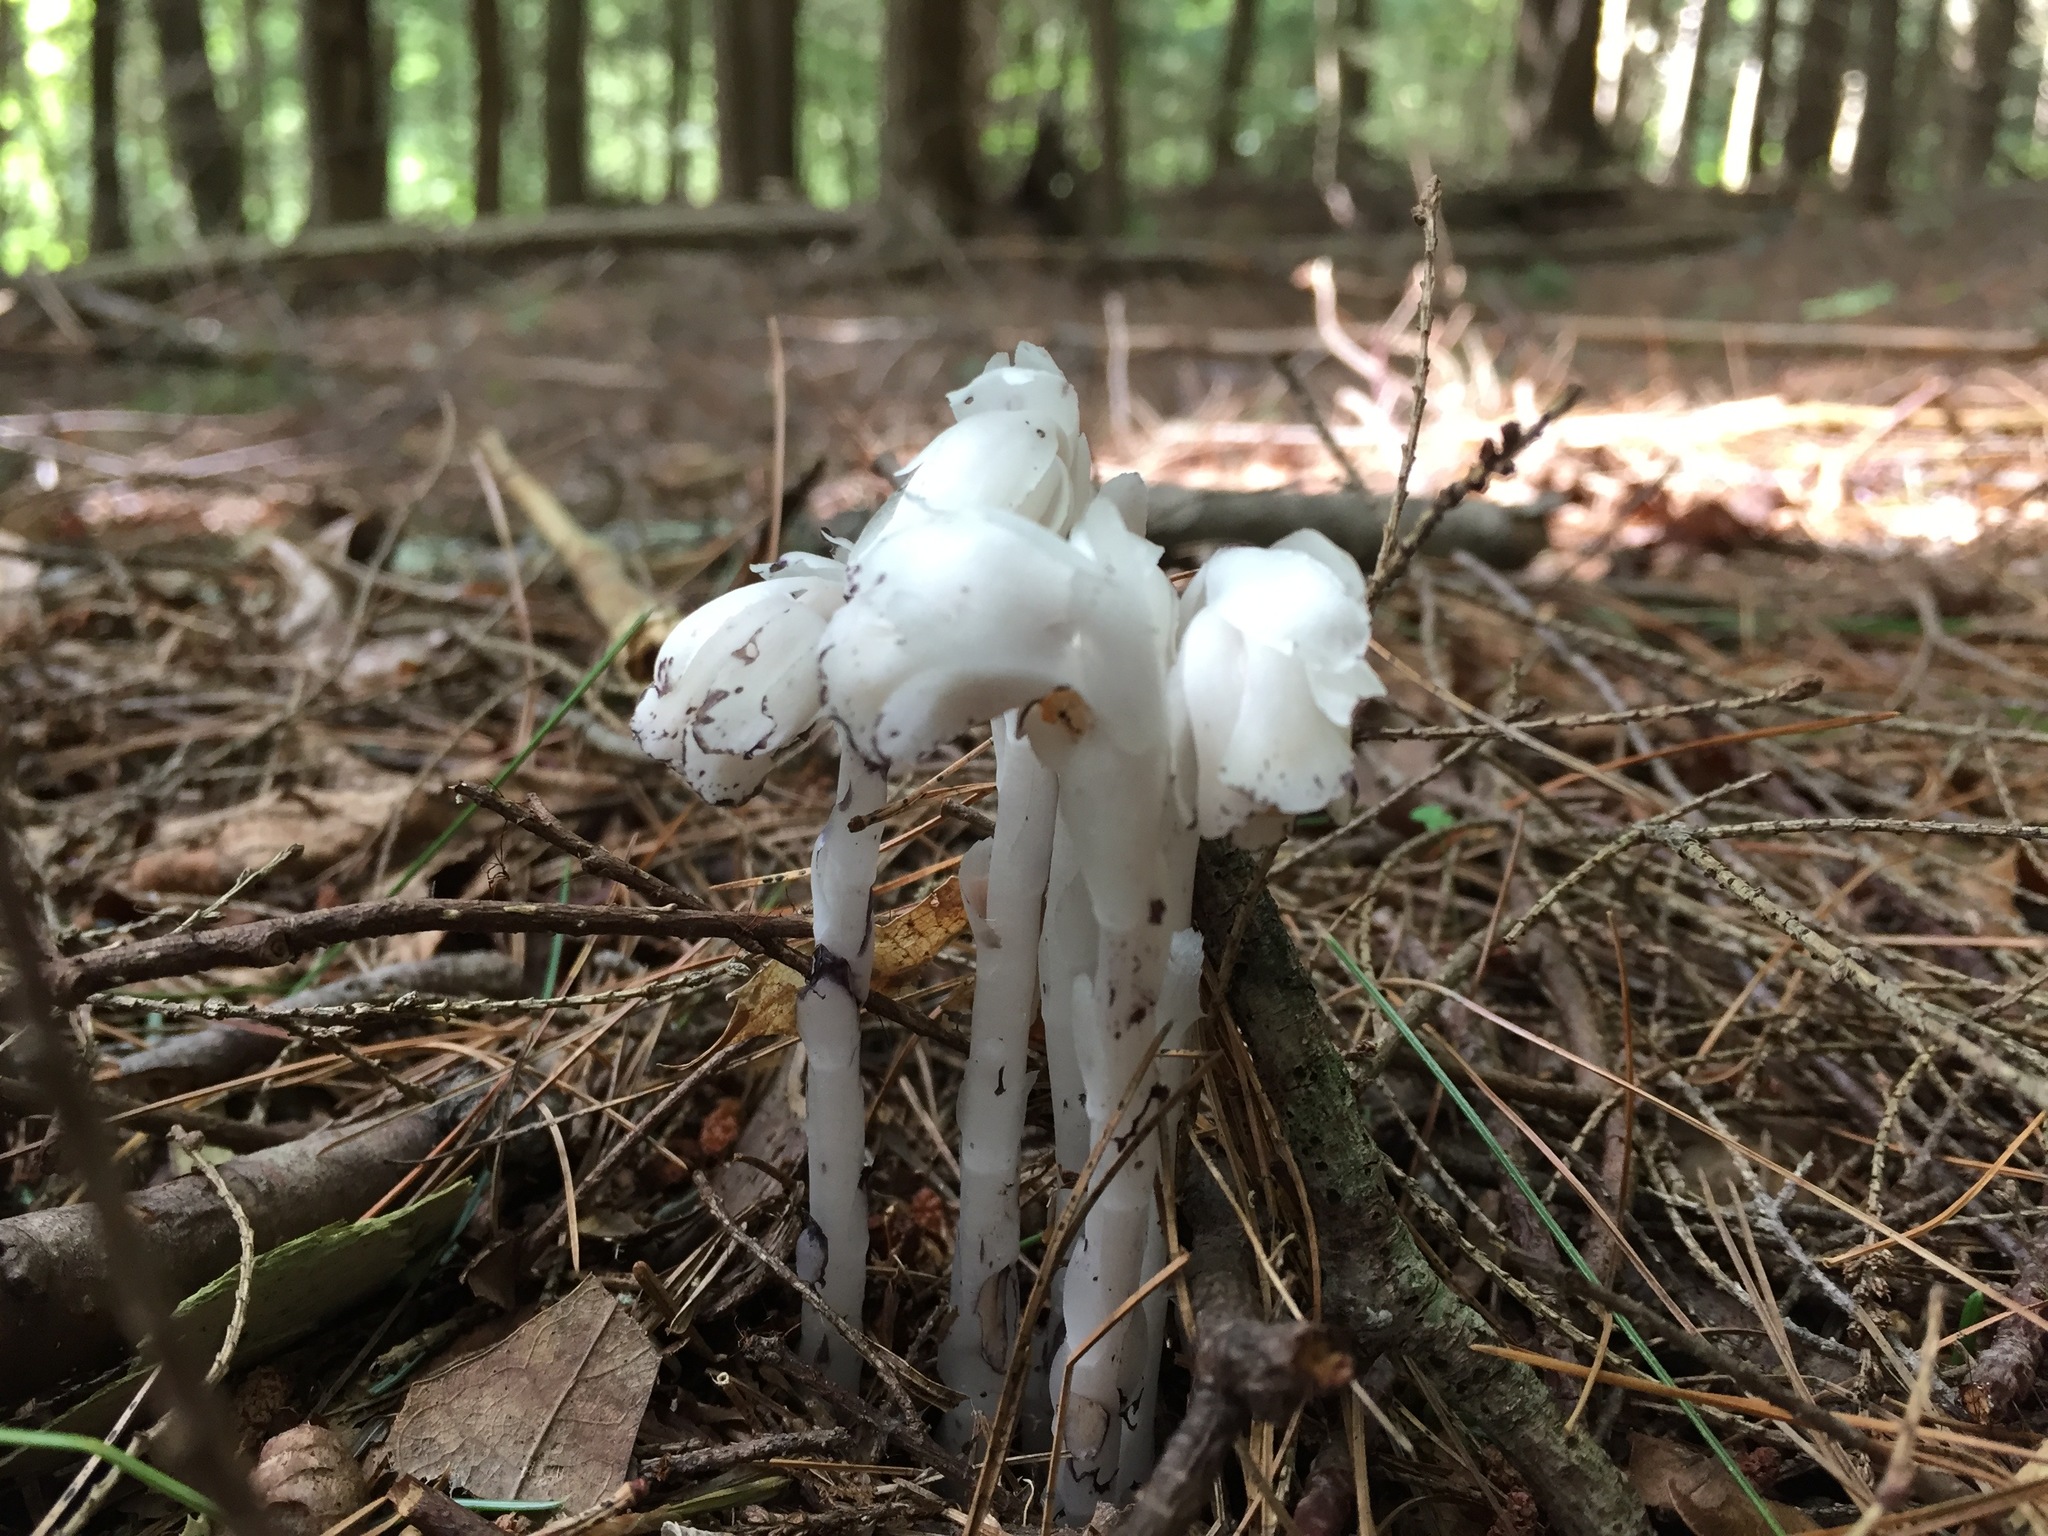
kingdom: Plantae
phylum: Tracheophyta
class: Magnoliopsida
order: Ericales
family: Ericaceae
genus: Monotropa
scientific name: Monotropa uniflora
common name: Convulsion root
